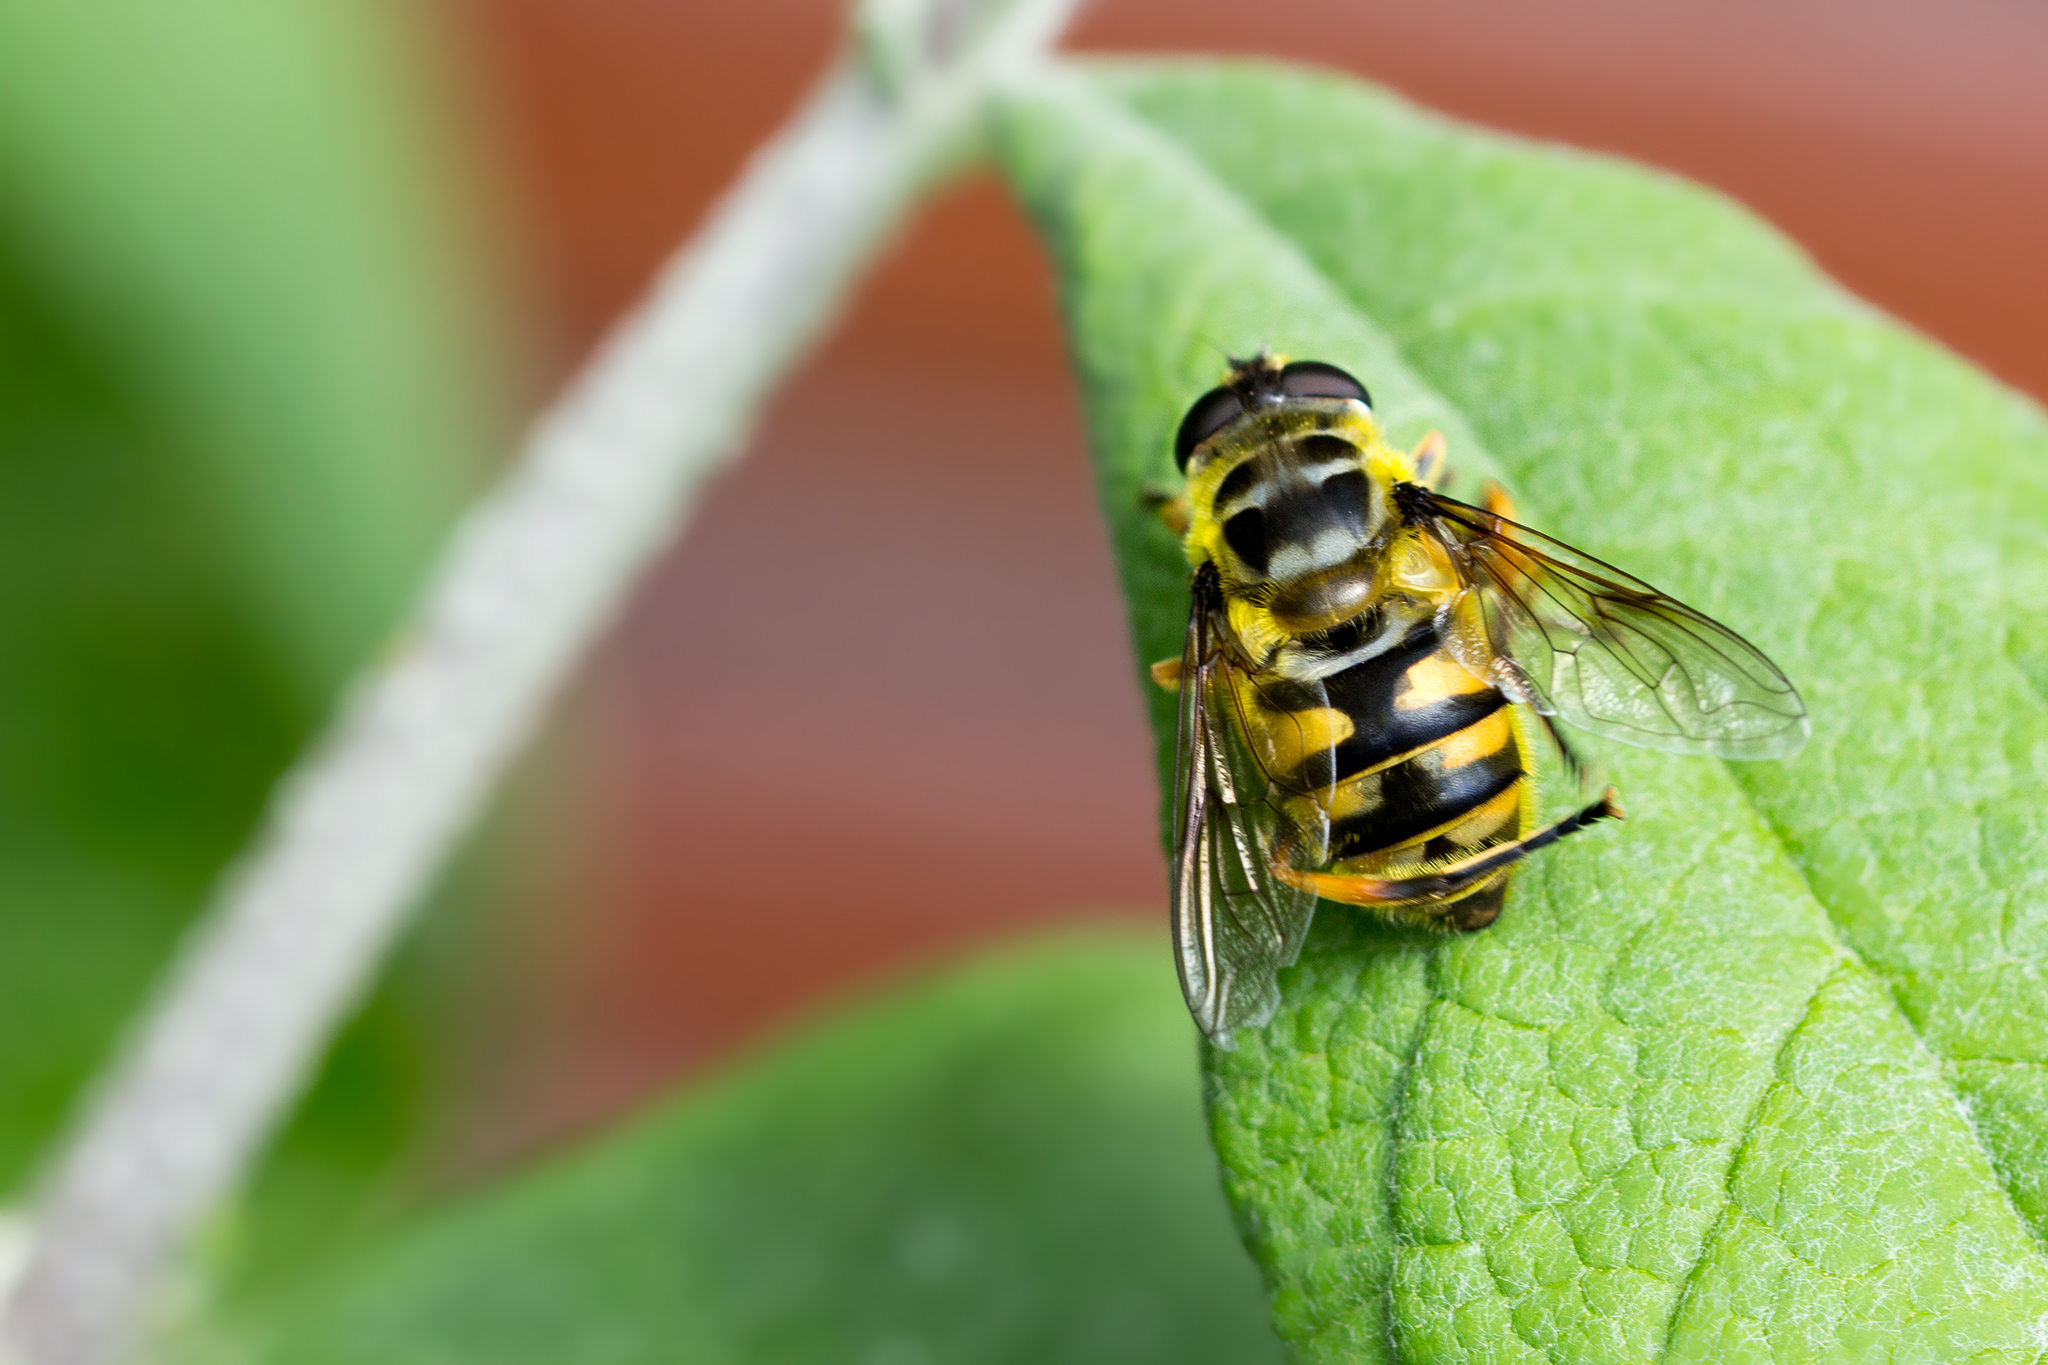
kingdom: Animalia
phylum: Arthropoda
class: Insecta
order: Diptera
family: Syrphidae
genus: Myathropa
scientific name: Myathropa florea
